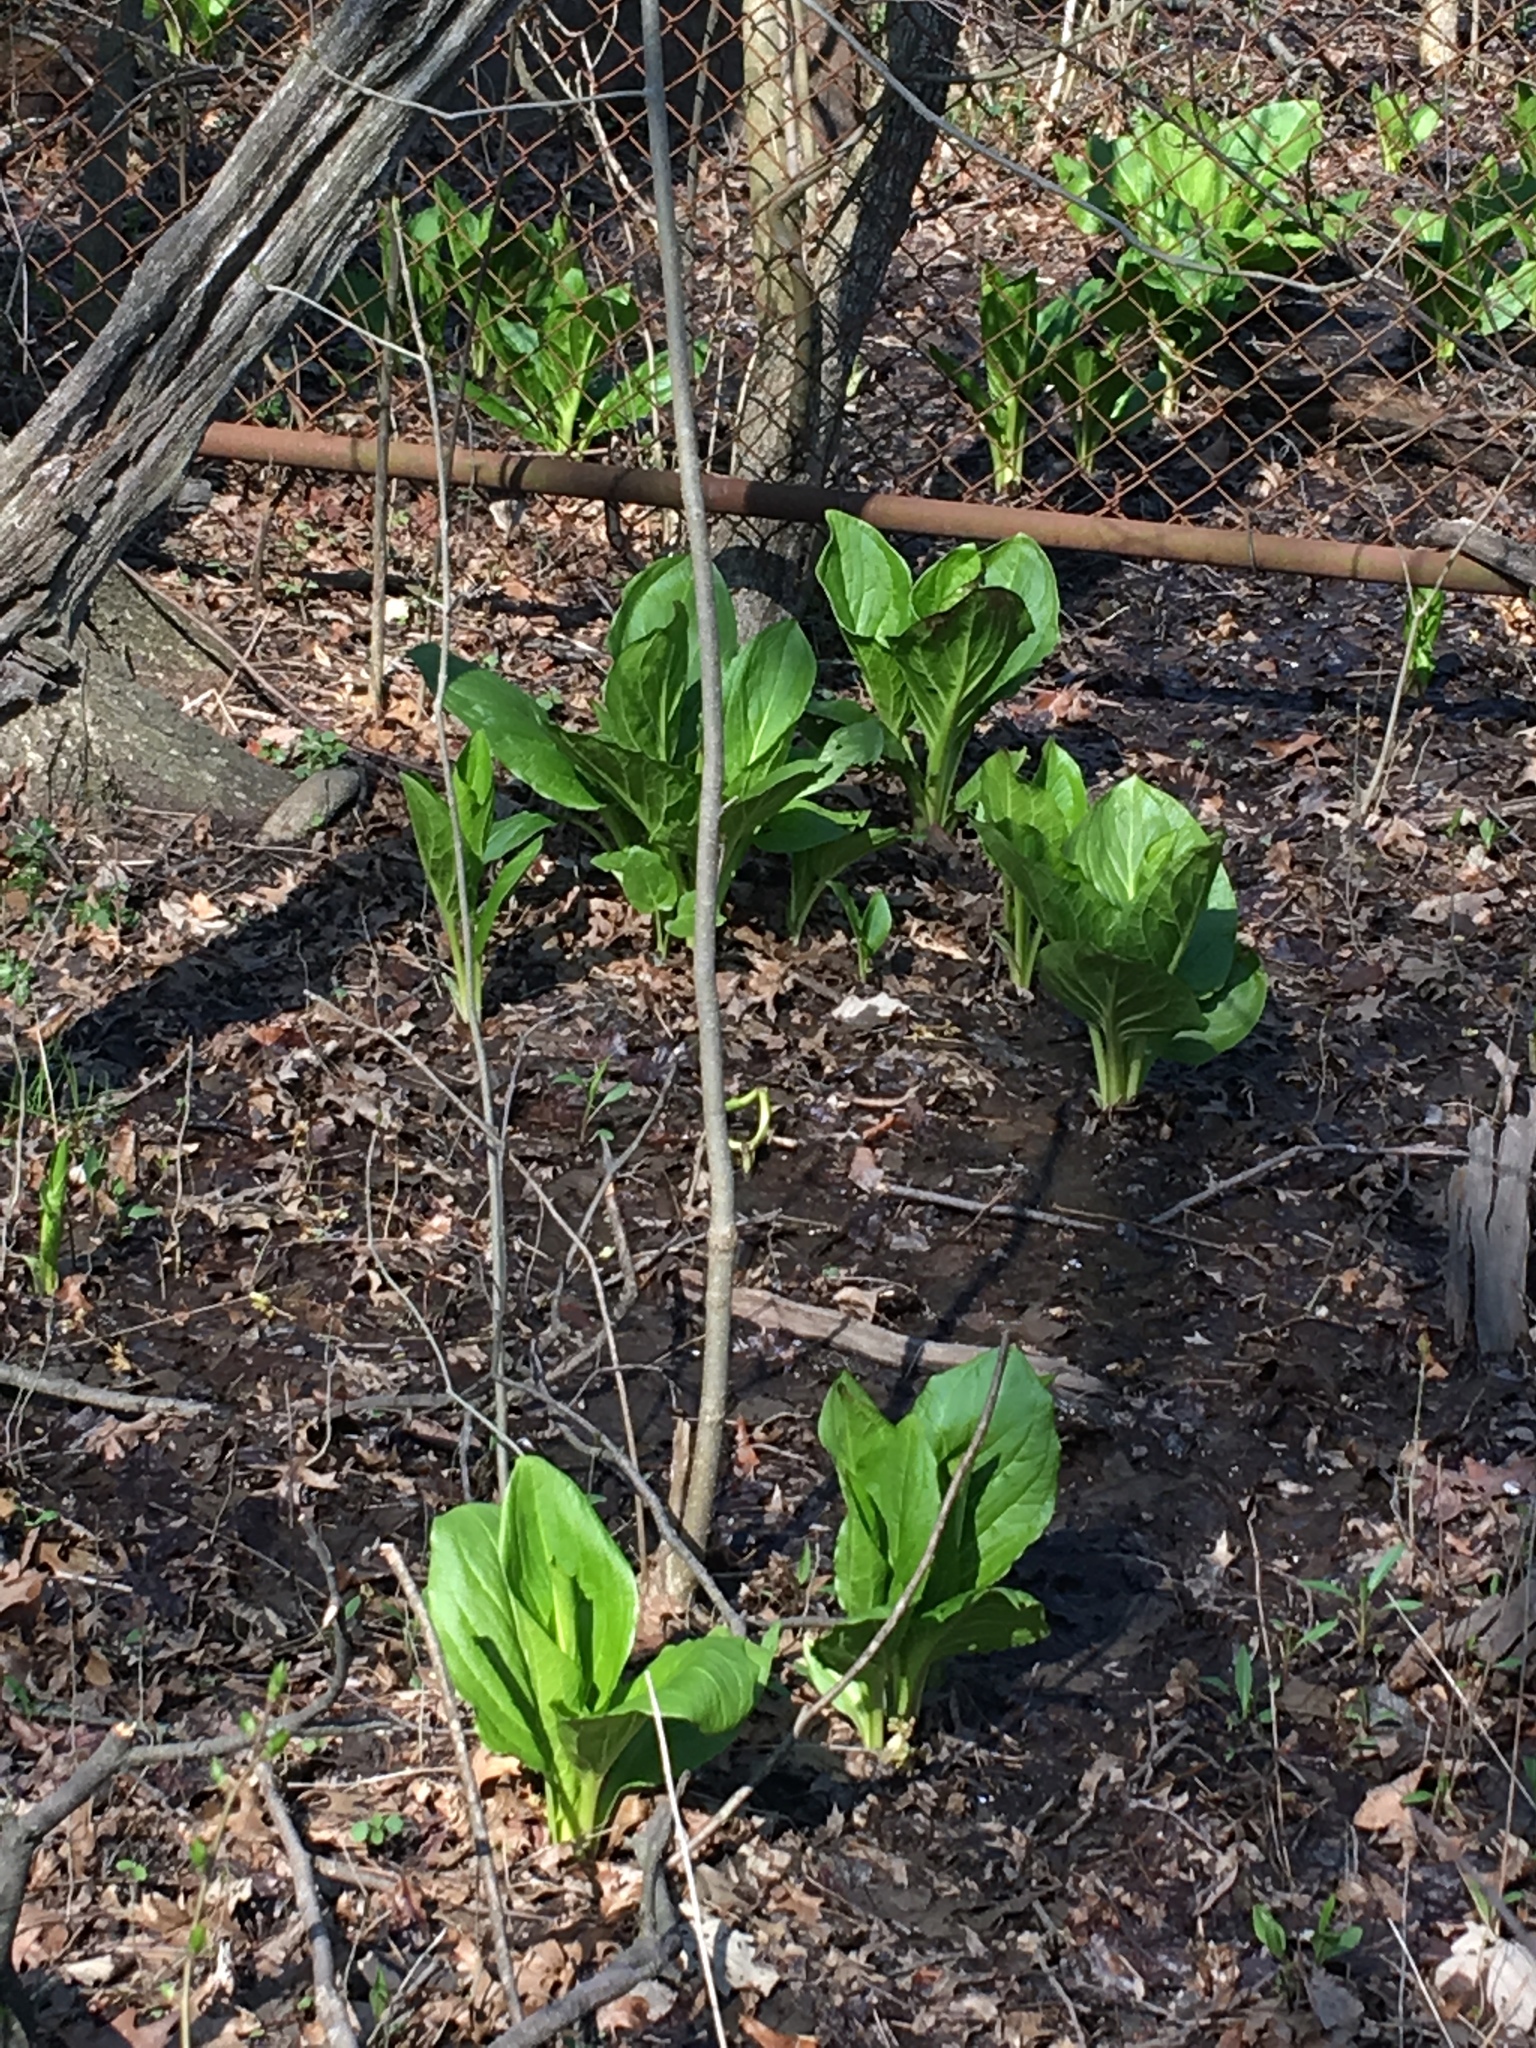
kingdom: Plantae
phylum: Tracheophyta
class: Liliopsida
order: Alismatales
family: Araceae
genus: Symplocarpus
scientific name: Symplocarpus foetidus
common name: Eastern skunk cabbage
